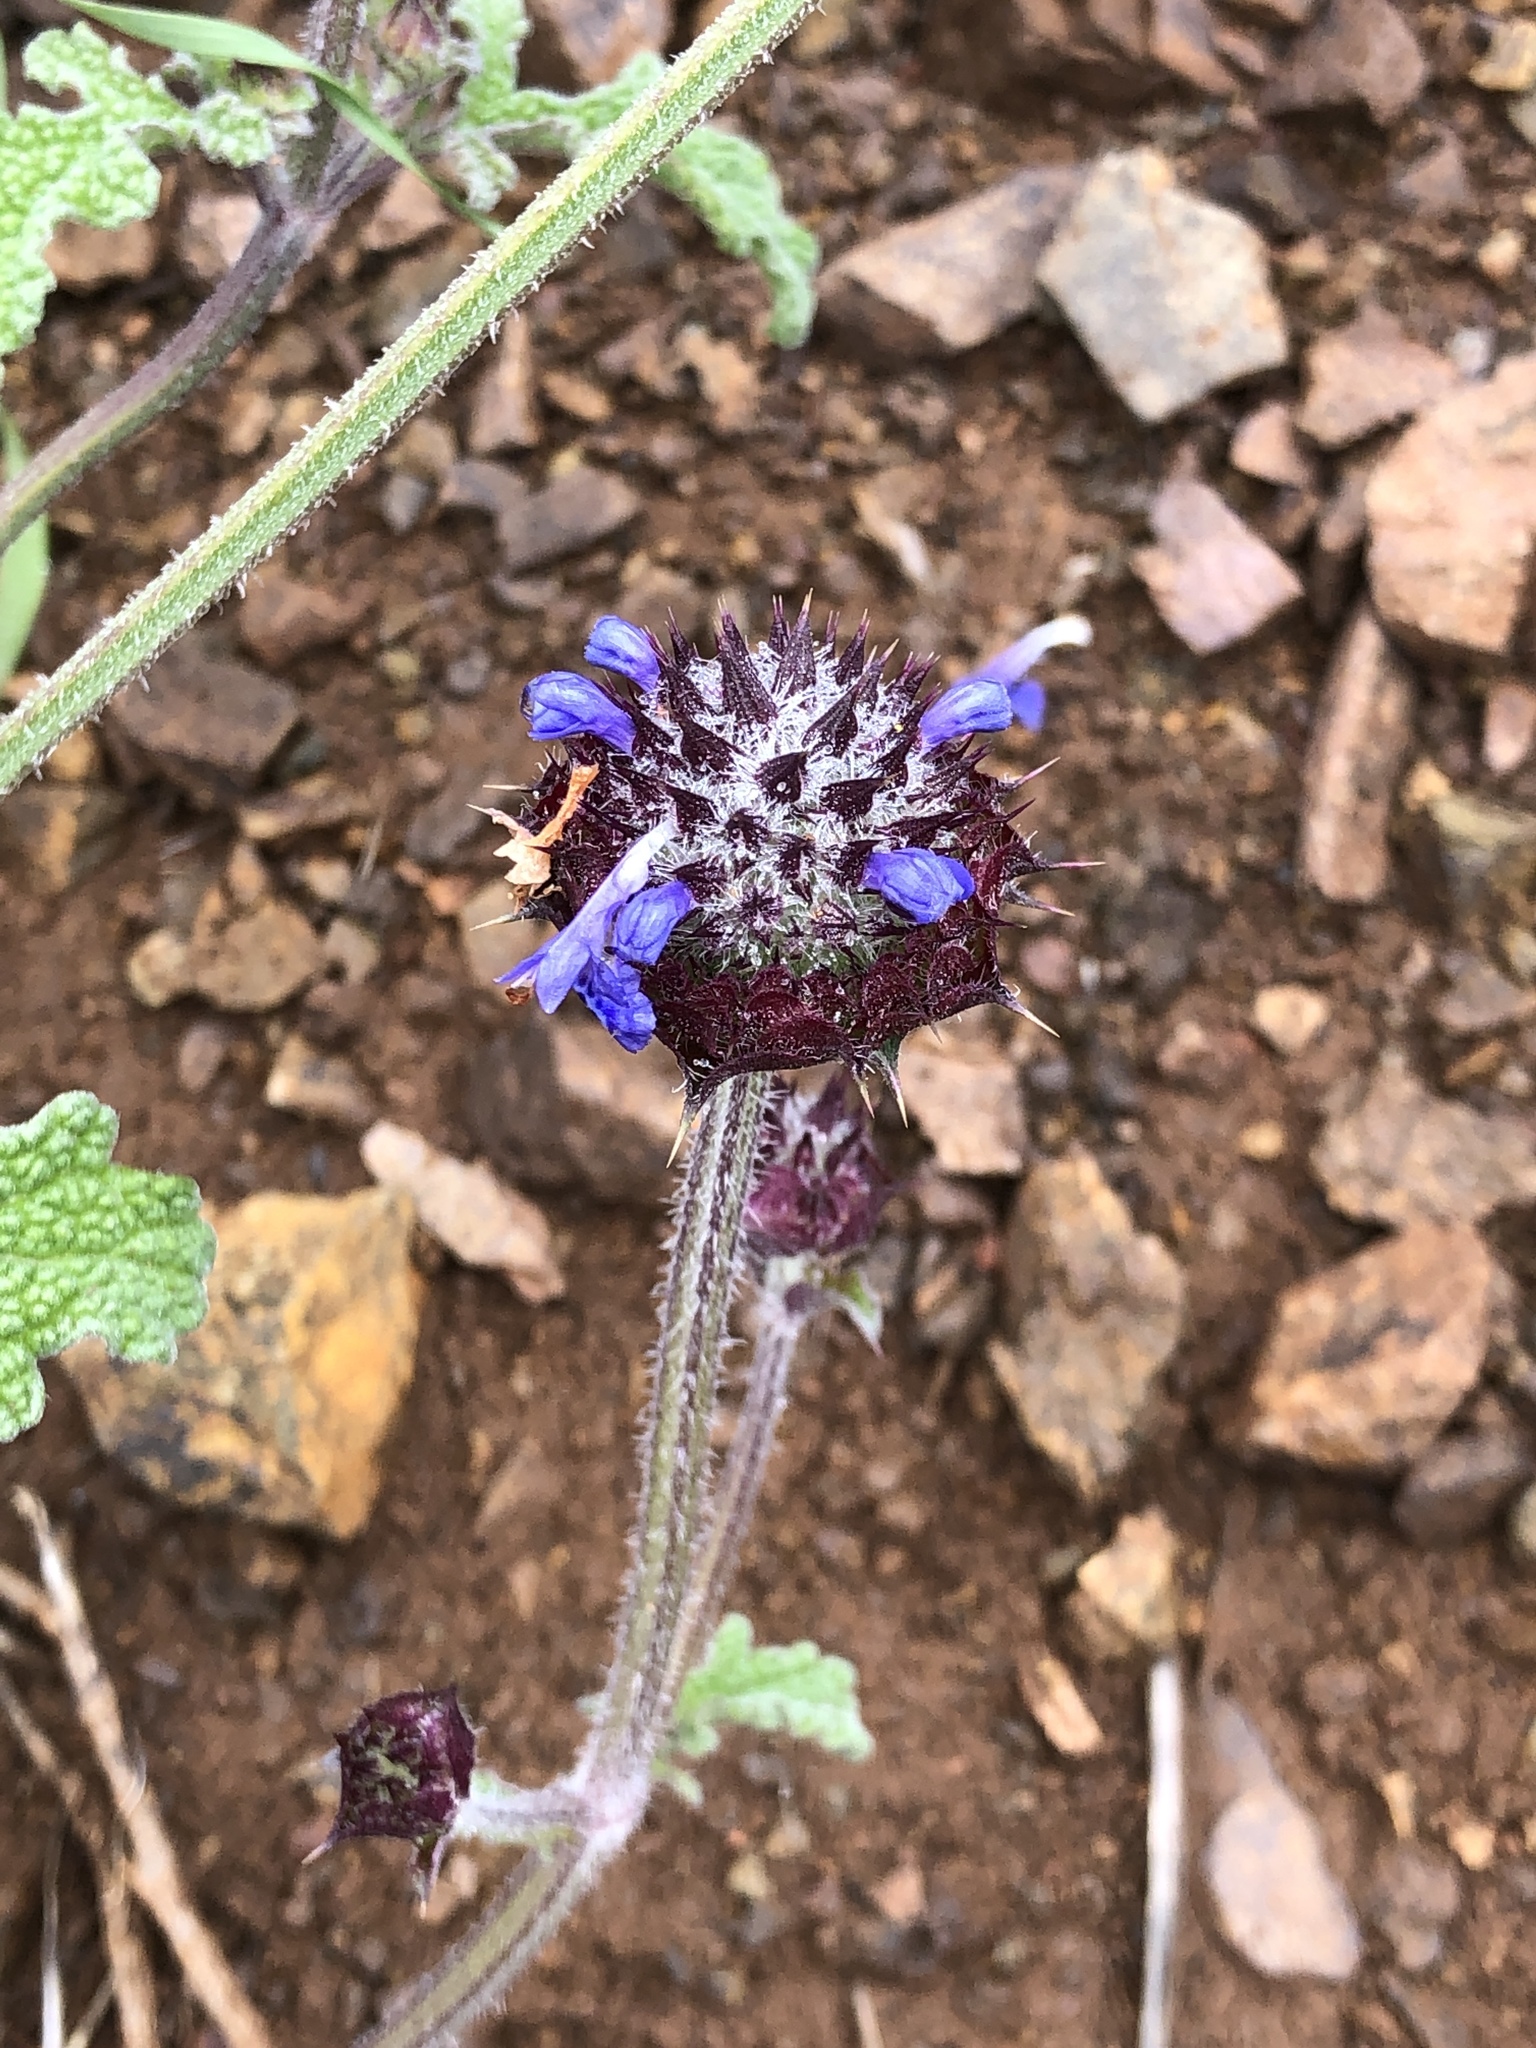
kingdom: Plantae
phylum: Tracheophyta
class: Magnoliopsida
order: Lamiales
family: Lamiaceae
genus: Salvia
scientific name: Salvia columbariae
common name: Chia
